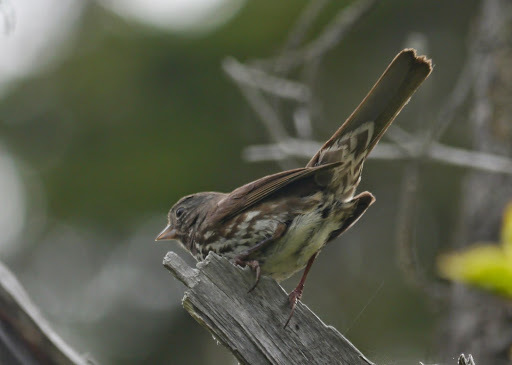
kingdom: Animalia
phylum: Chordata
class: Aves
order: Passeriformes
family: Passerellidae
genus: Passerella
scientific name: Passerella iliaca
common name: Fox sparrow
